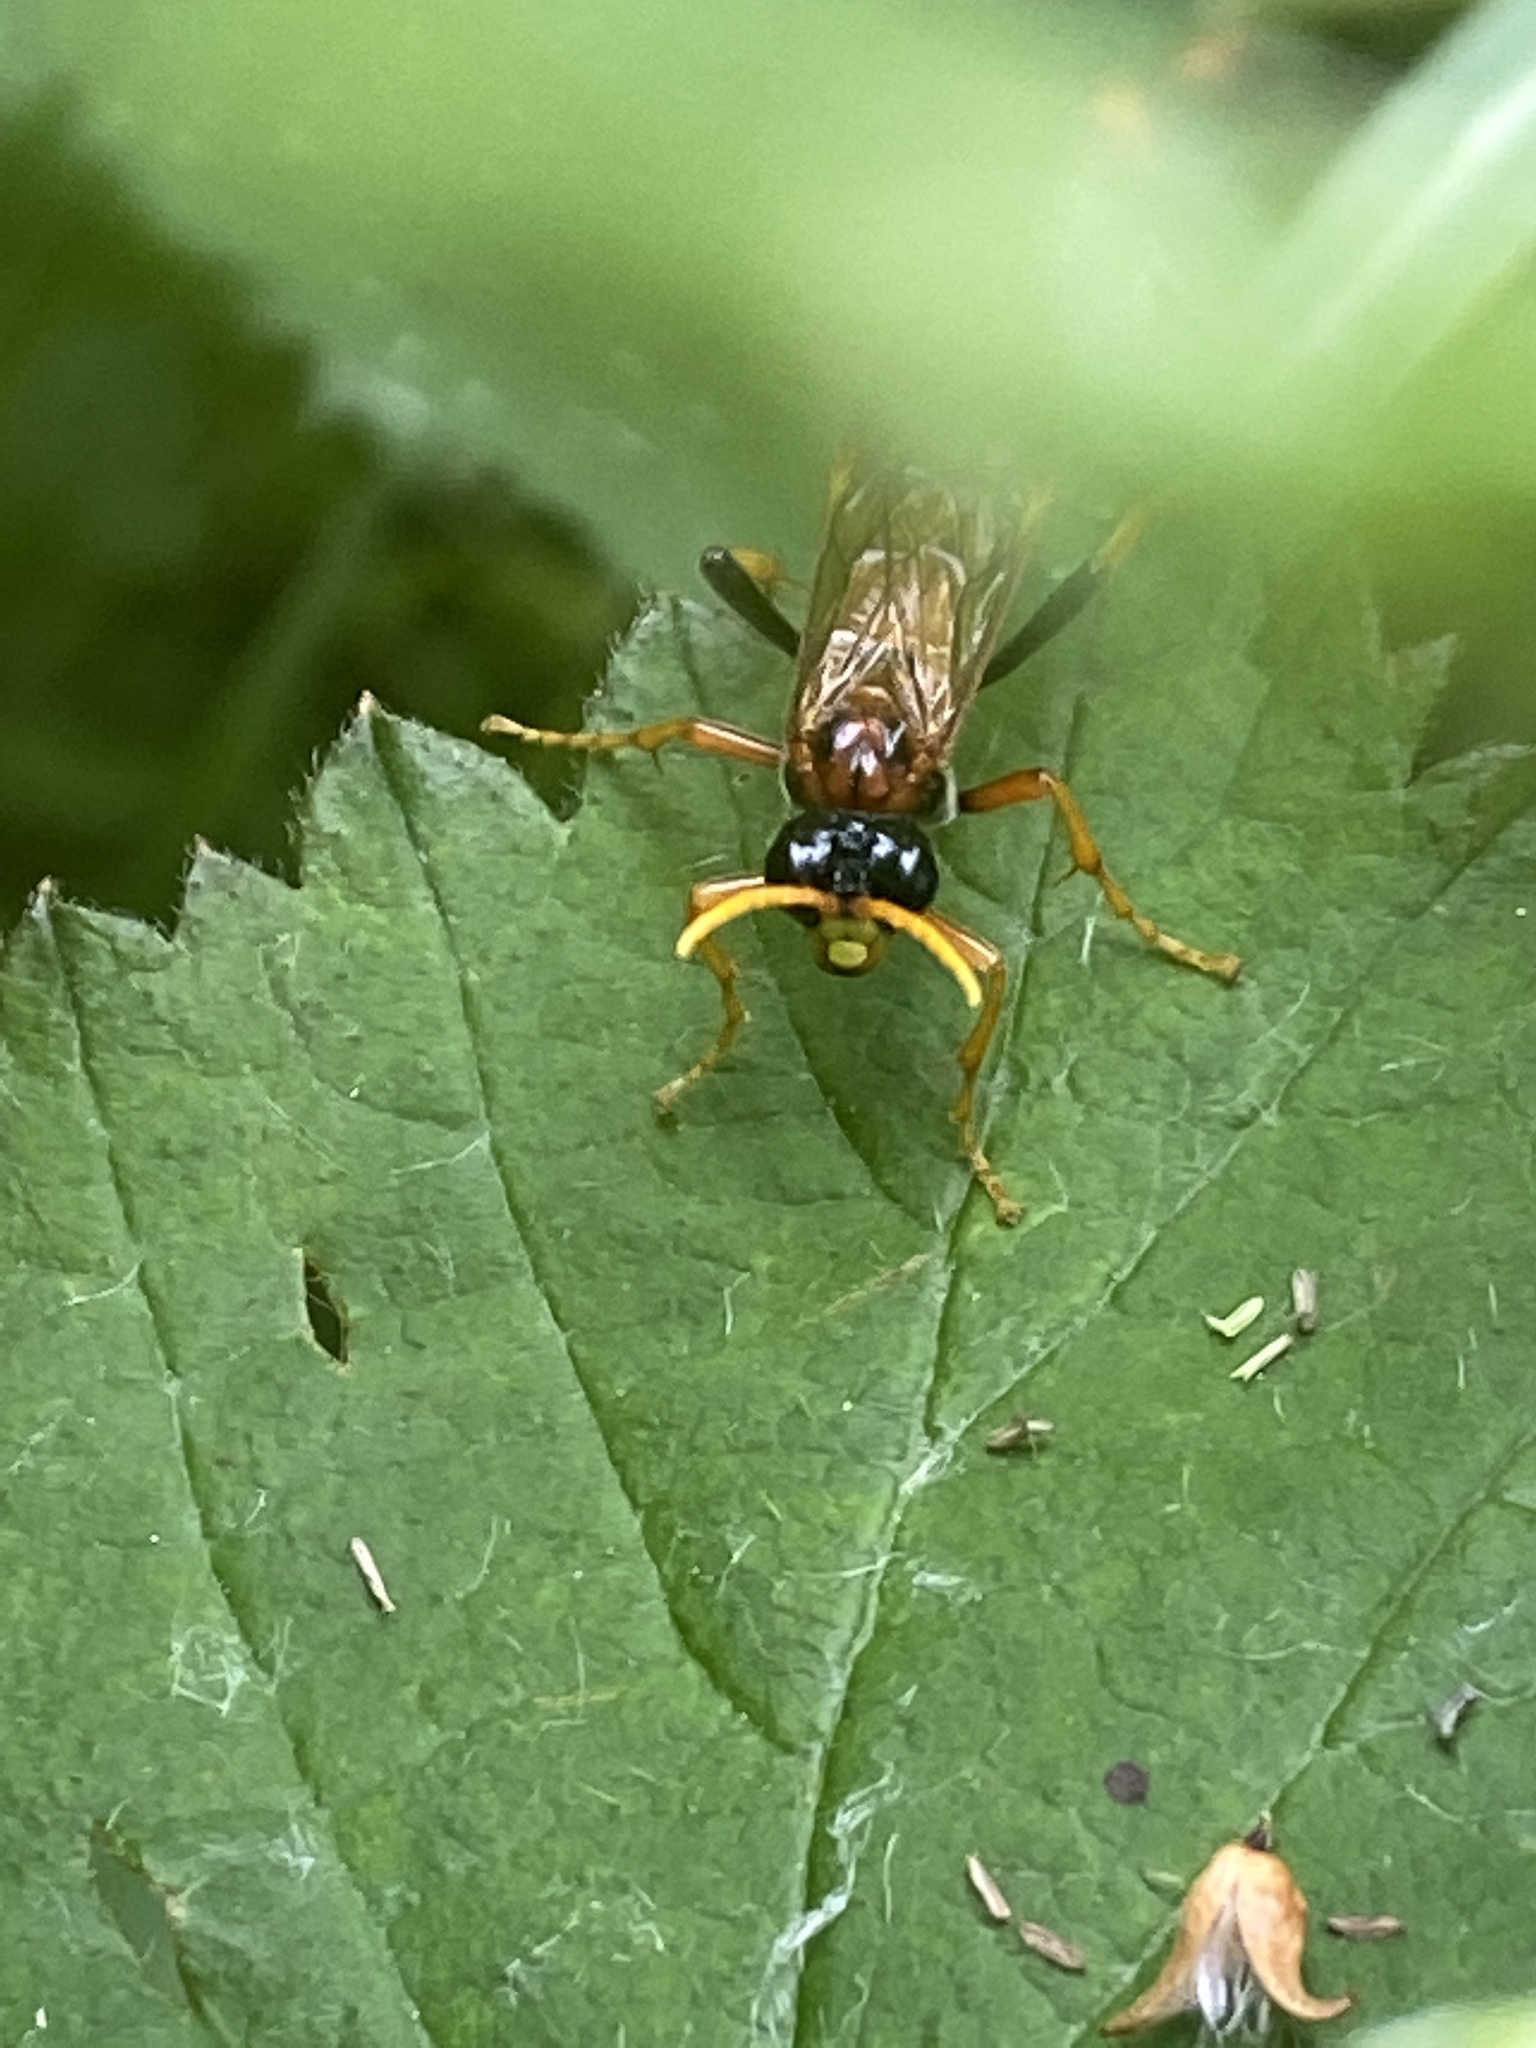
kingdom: Animalia
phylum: Arthropoda
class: Insecta
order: Hymenoptera
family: Tenthredinidae
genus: Tenthredo
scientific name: Tenthredo campestris
